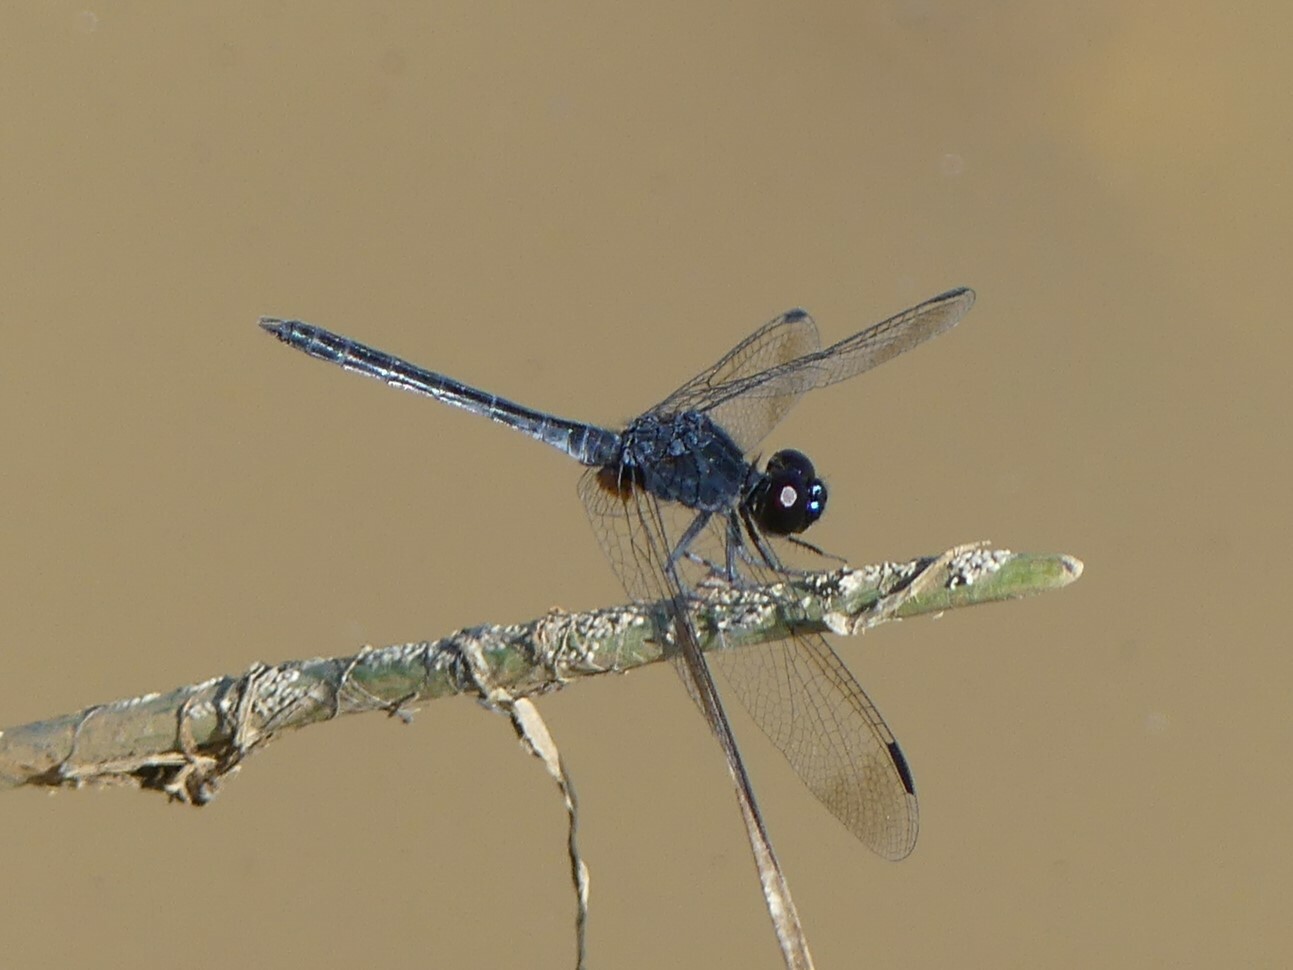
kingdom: Animalia
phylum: Arthropoda
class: Insecta
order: Odonata
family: Libellulidae
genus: Diplacodes
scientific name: Diplacodes lefebvrii
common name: Black percher
